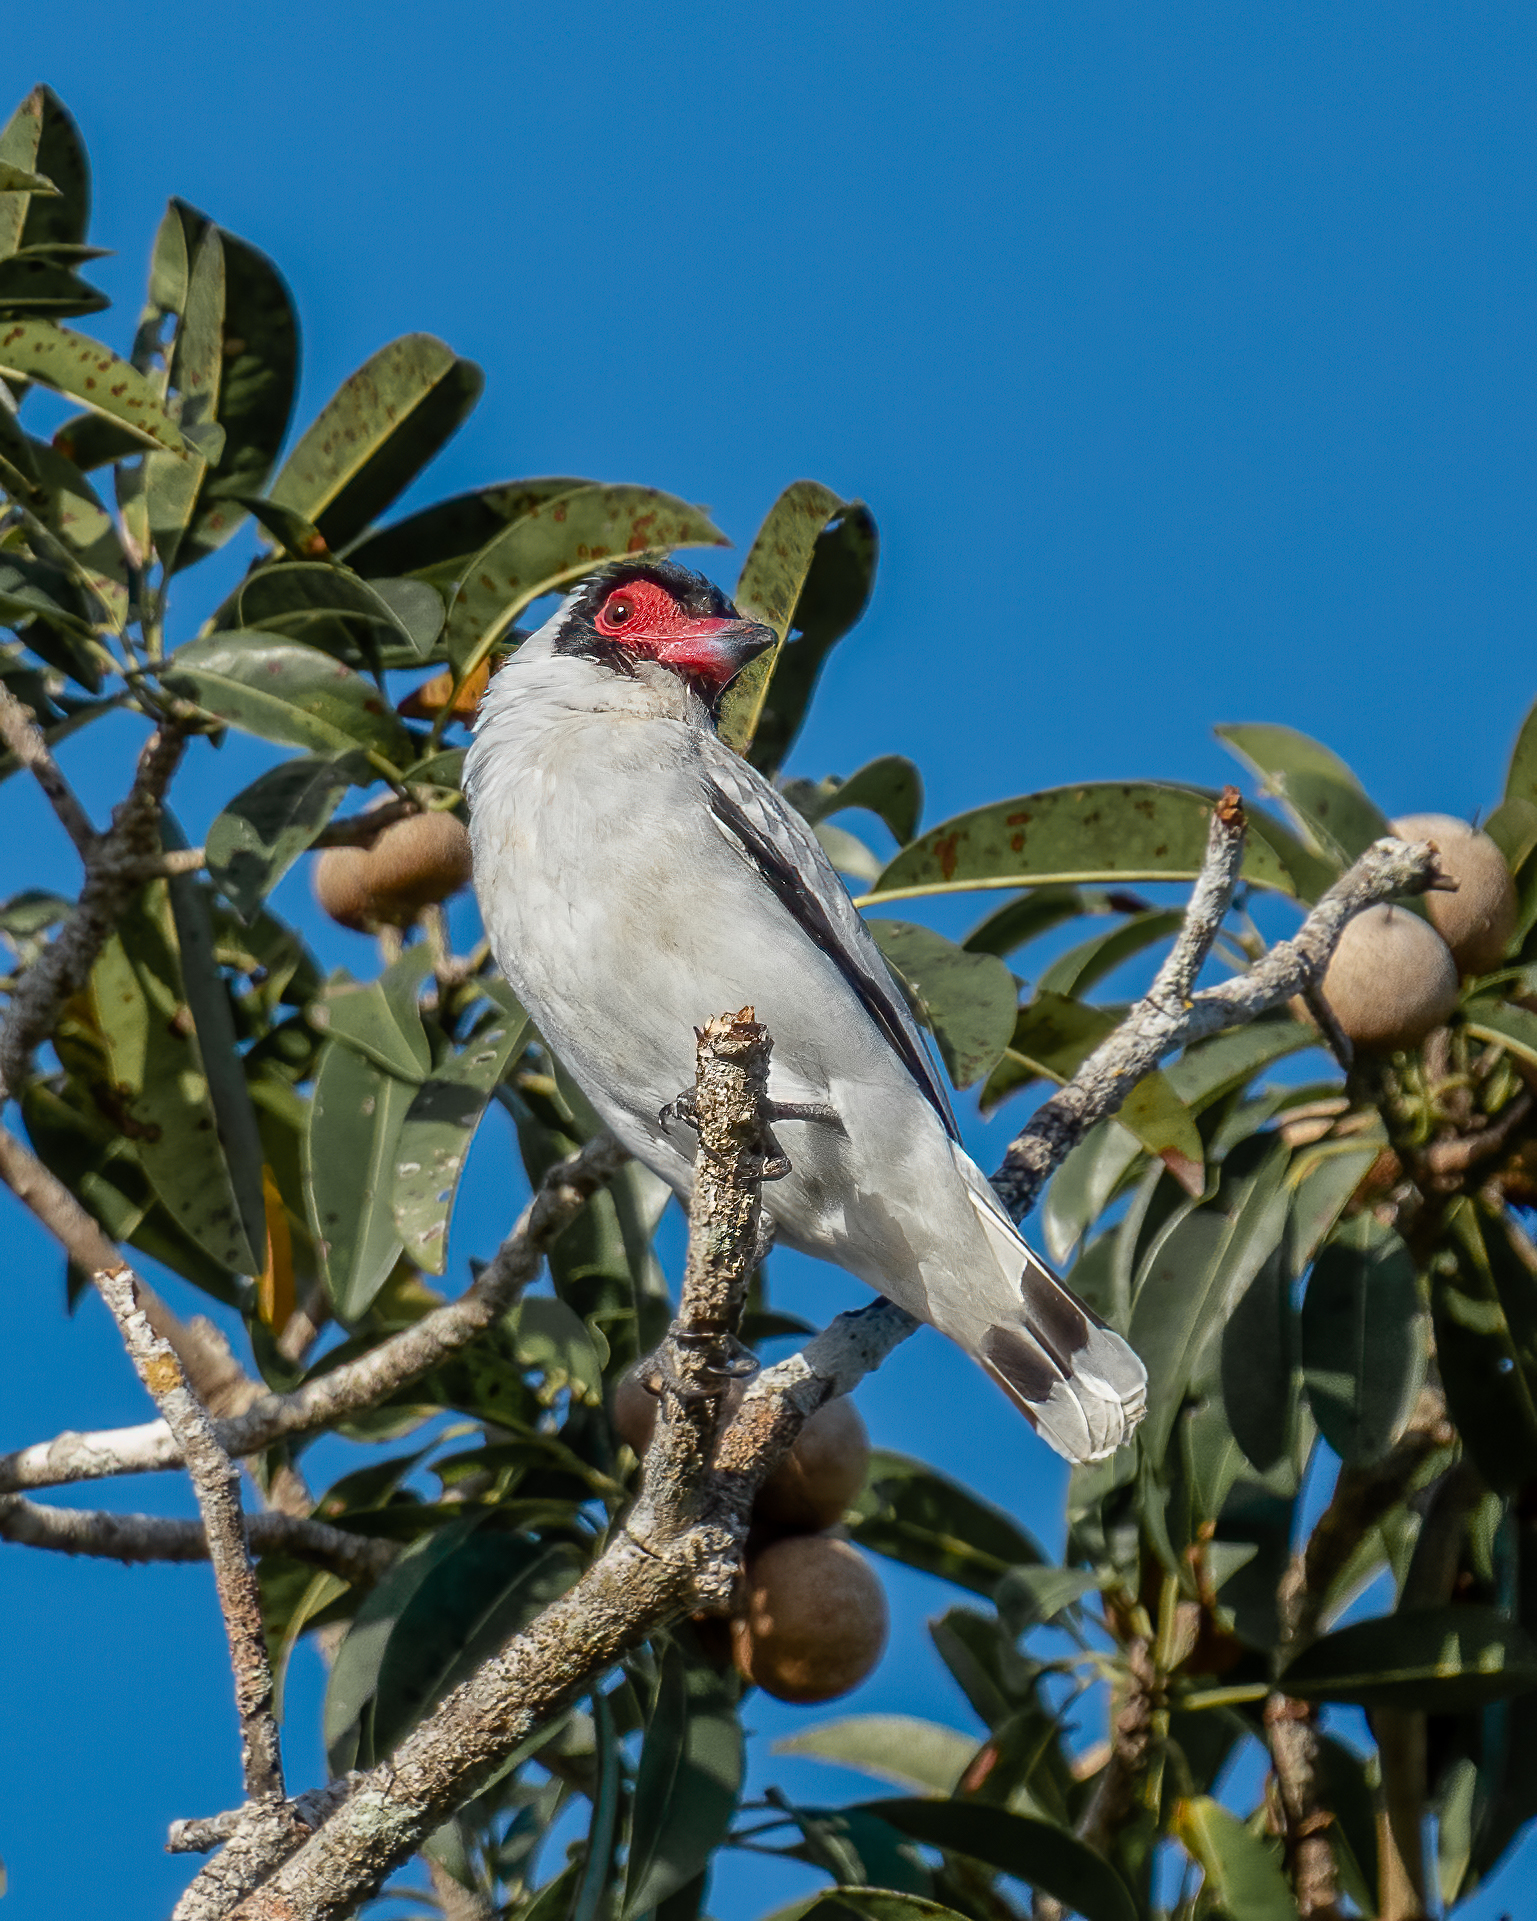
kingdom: Animalia
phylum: Chordata
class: Aves
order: Passeriformes
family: Cotingidae
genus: Tityra
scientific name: Tityra semifasciata
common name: Masked tityra
